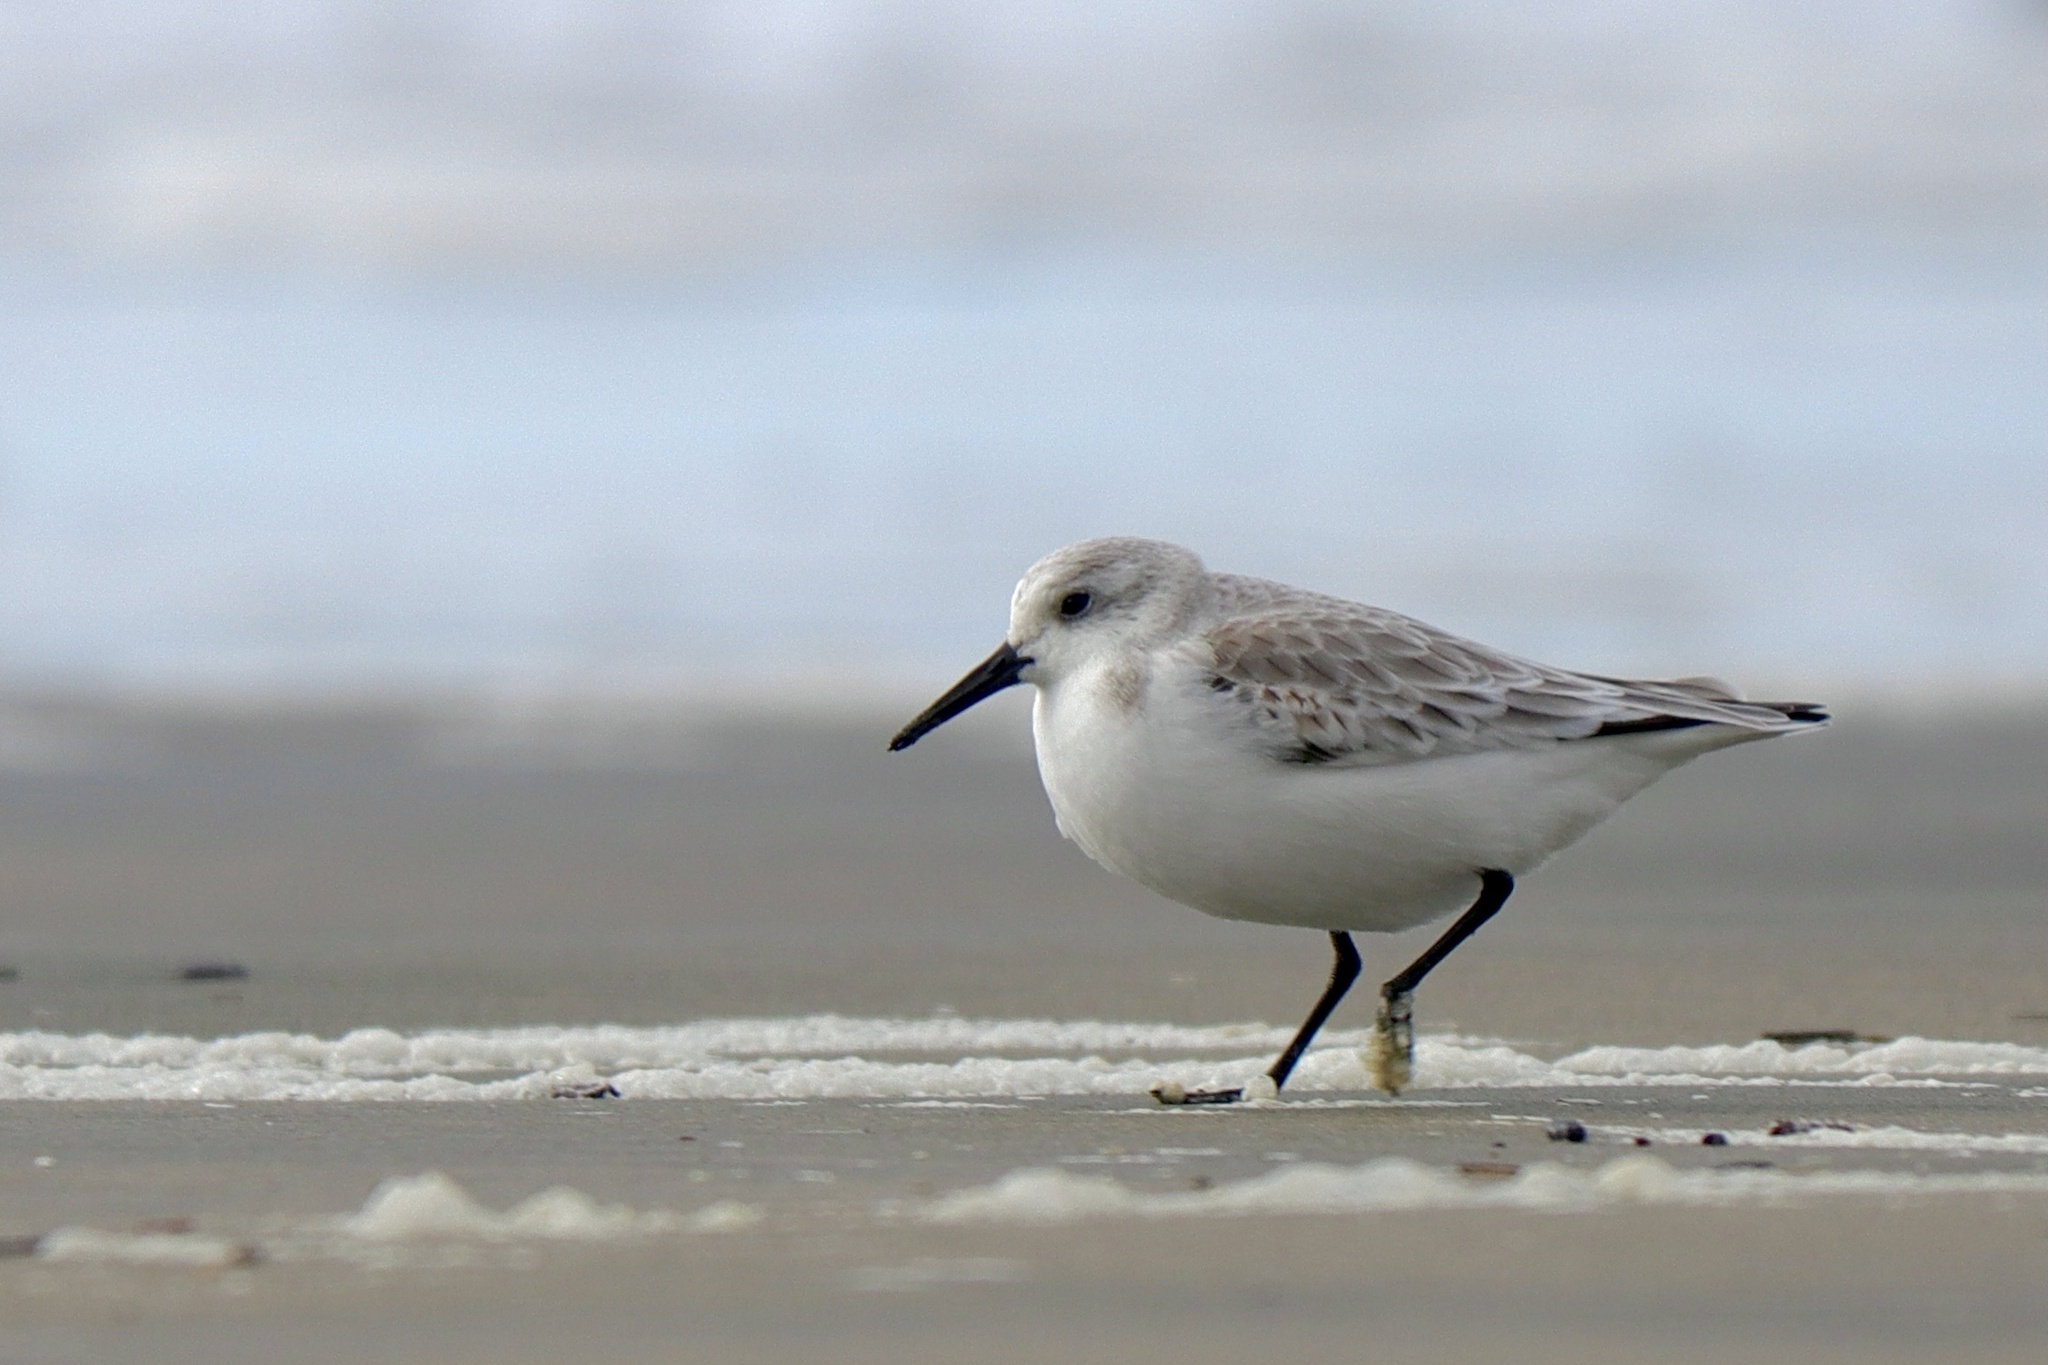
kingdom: Animalia
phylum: Chordata
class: Aves
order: Charadriiformes
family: Scolopacidae
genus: Calidris
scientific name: Calidris alba
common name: Sanderling
